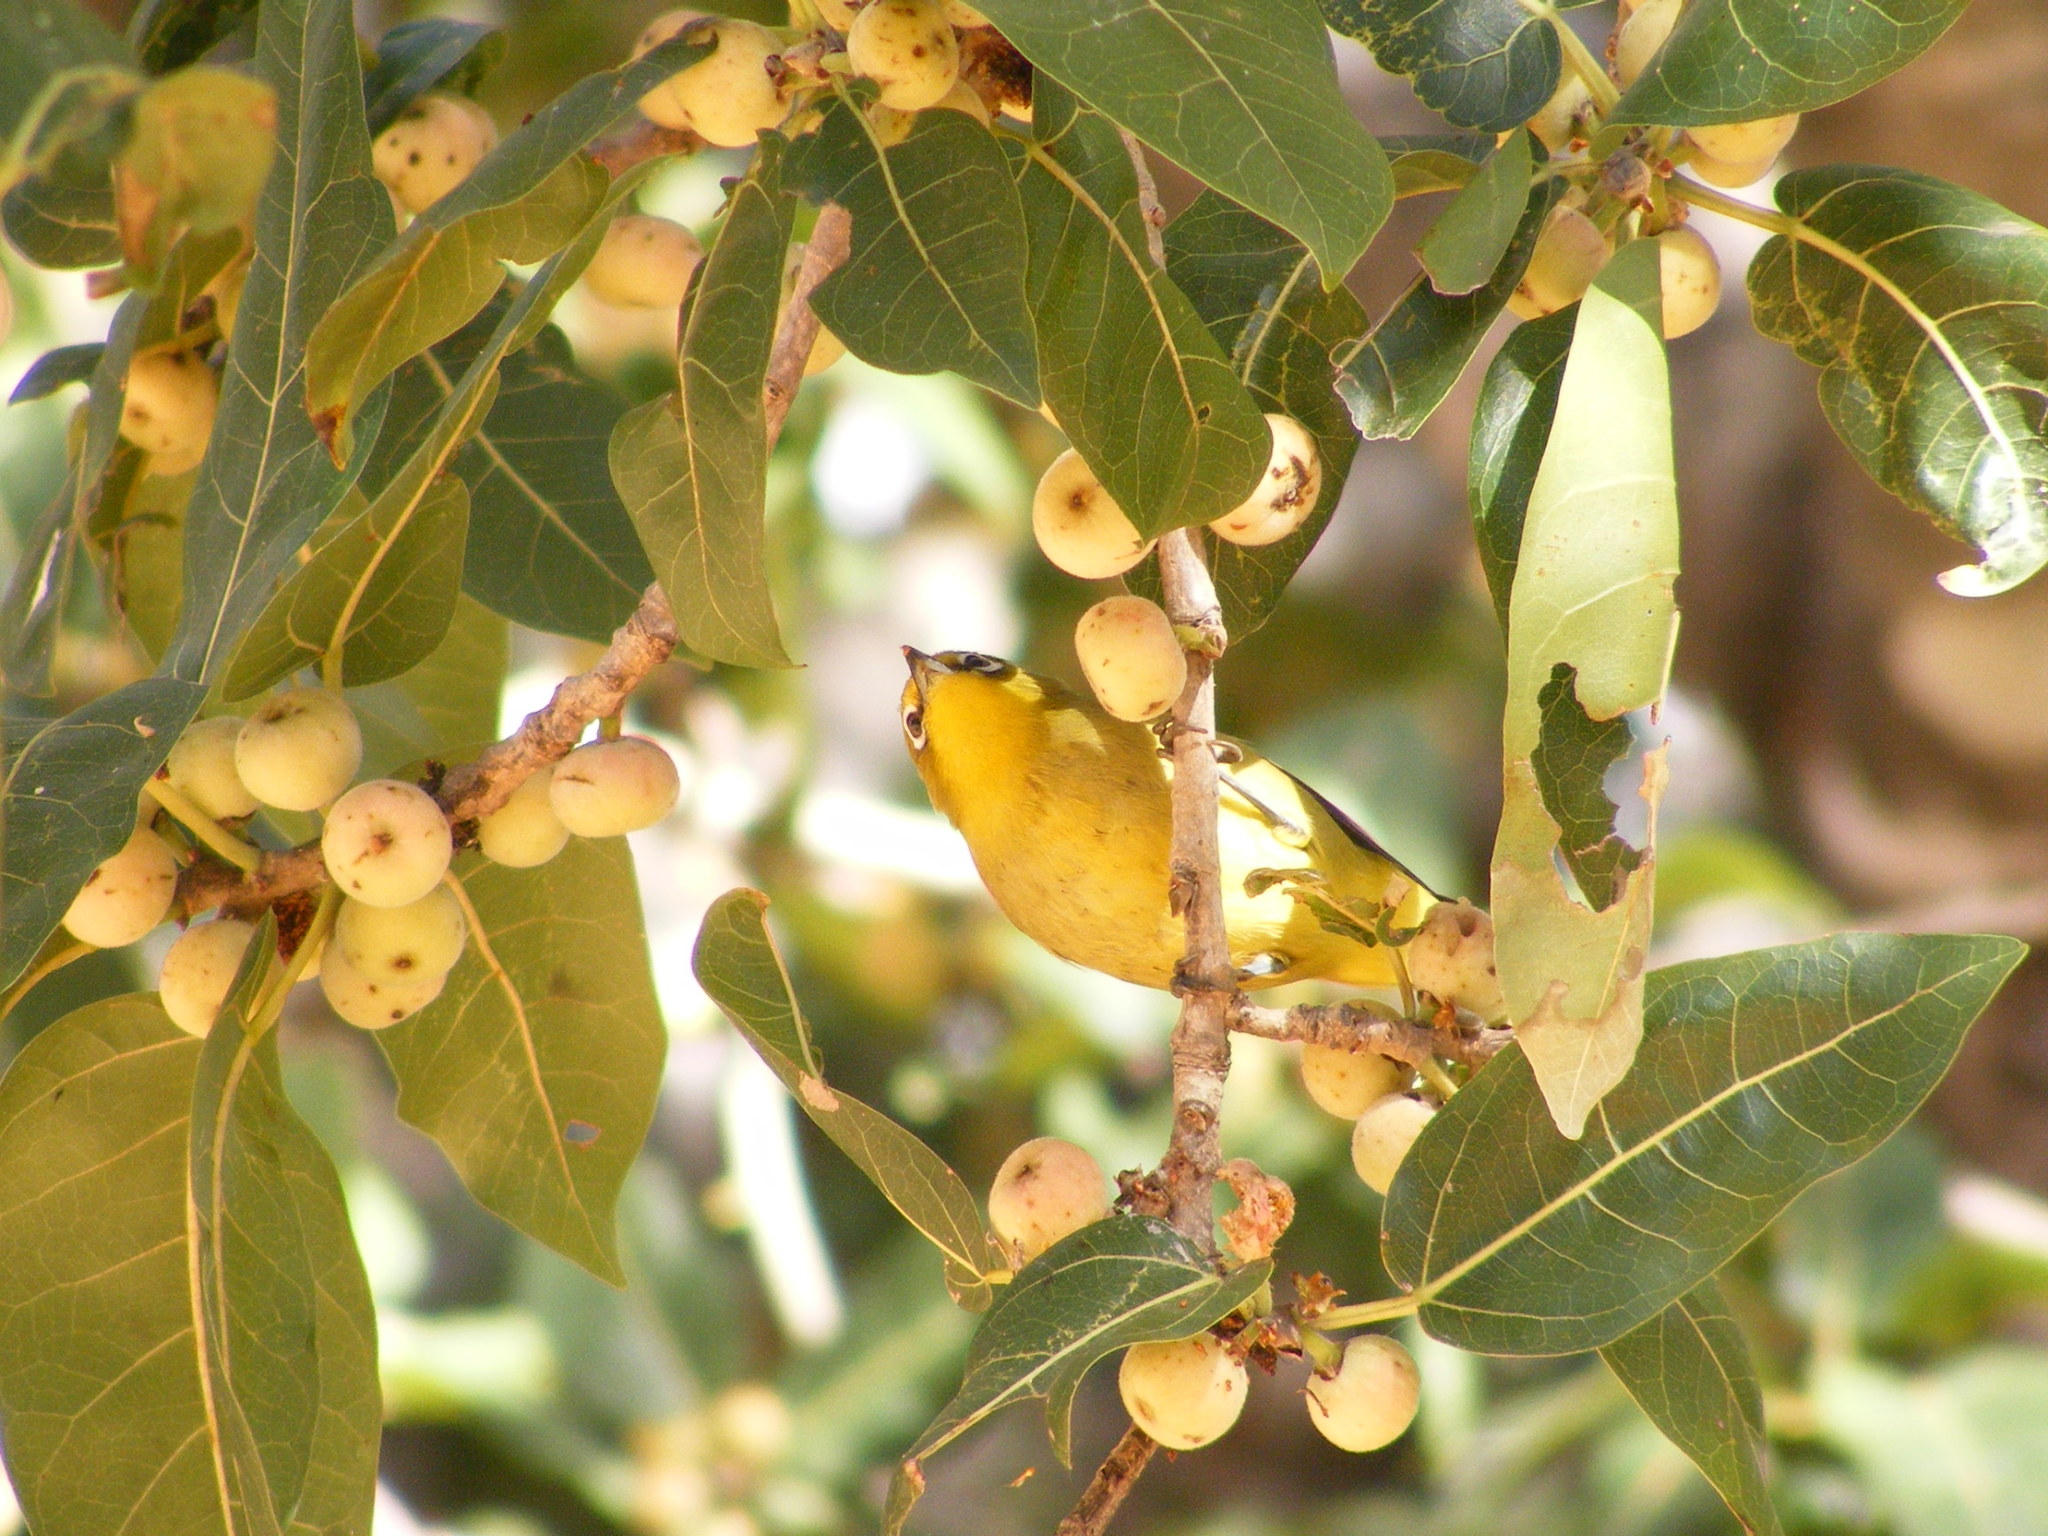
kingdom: Animalia
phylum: Chordata
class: Aves
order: Passeriformes
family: Zosteropidae
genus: Zosterops
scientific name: Zosterops virens
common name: Cape white-eye
